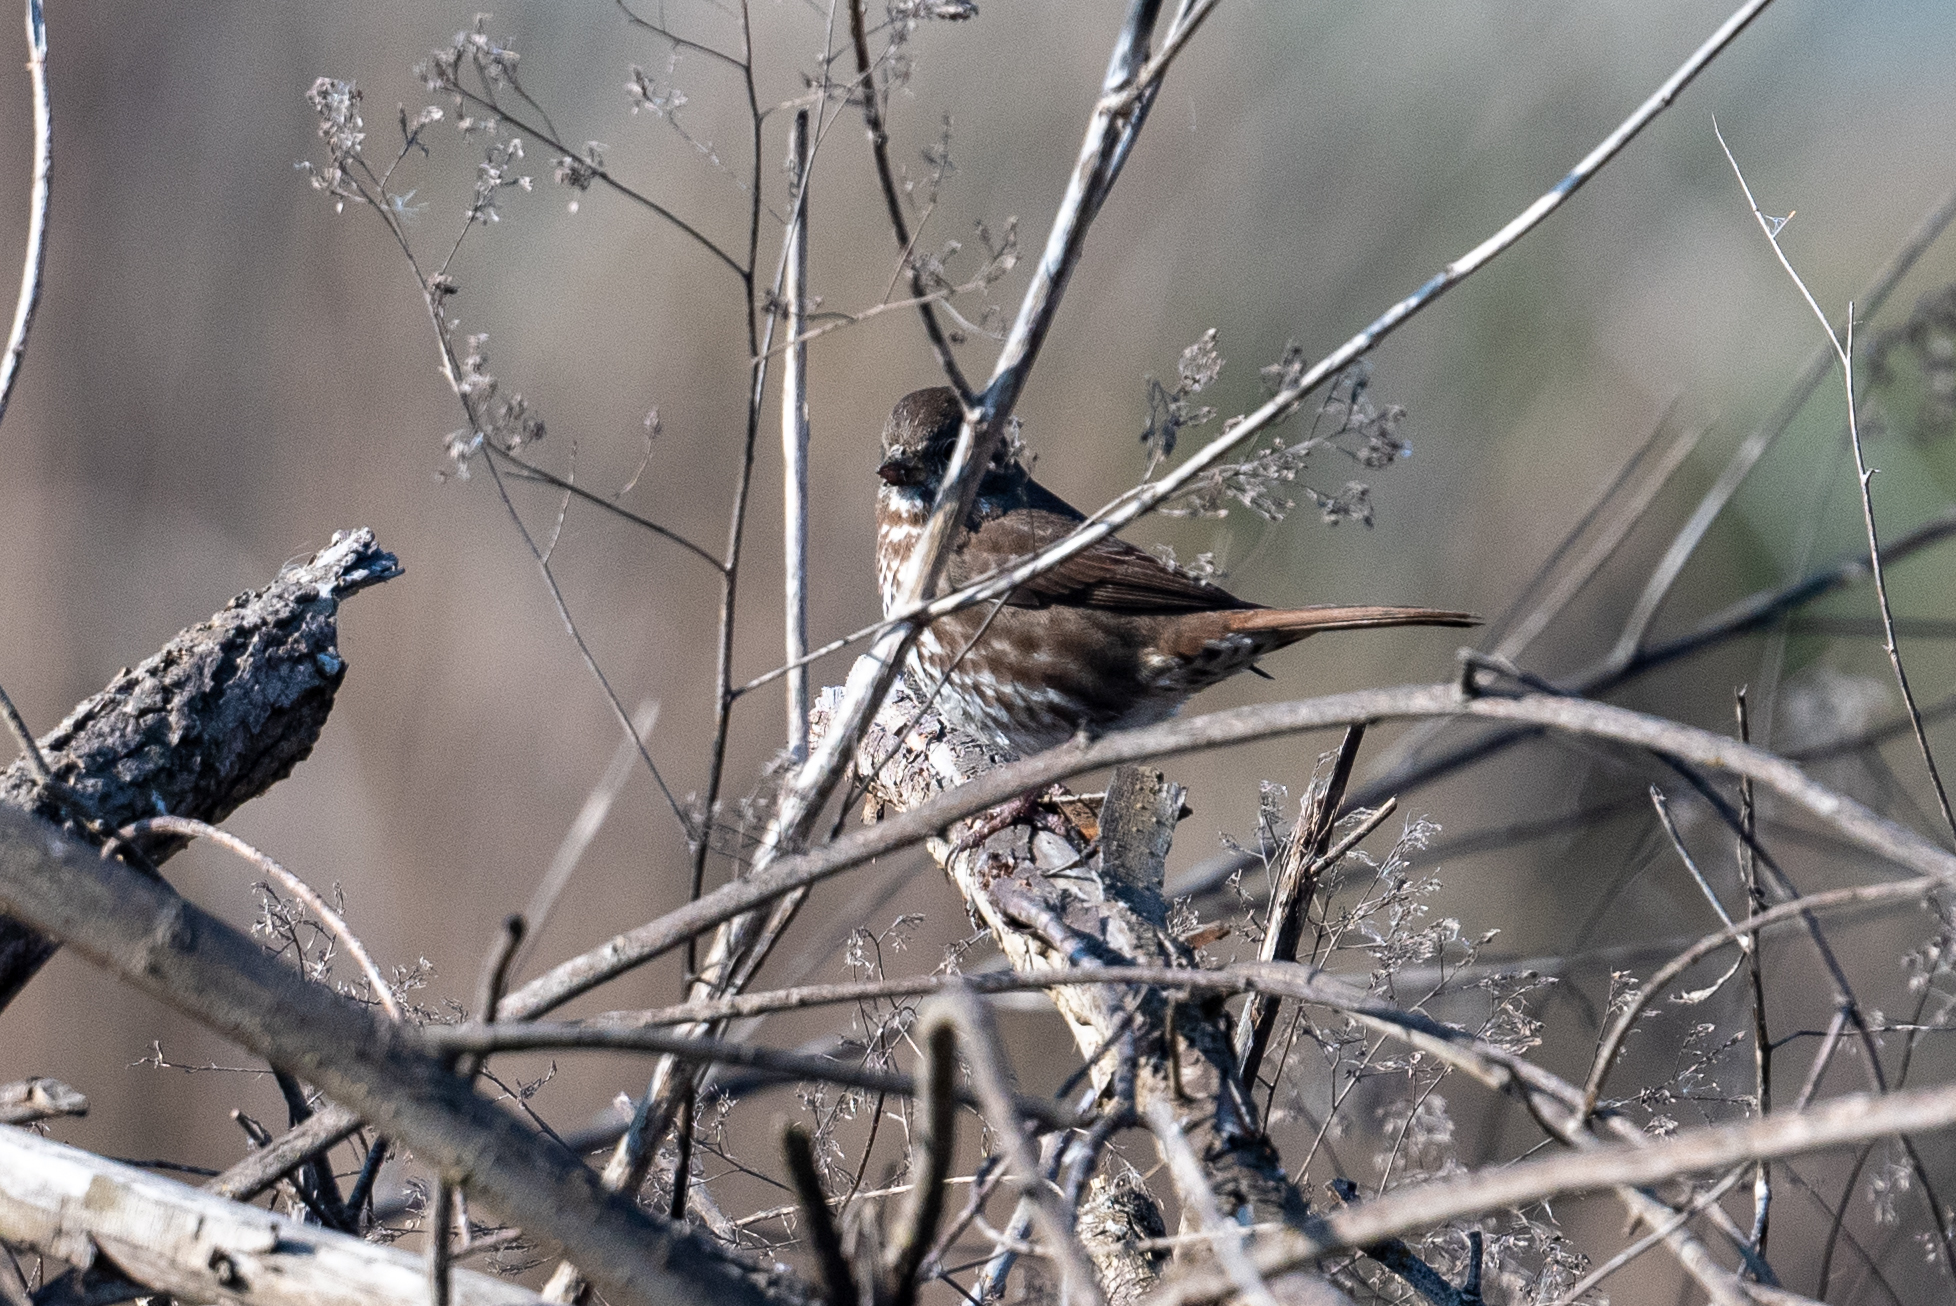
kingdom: Animalia
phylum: Chordata
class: Aves
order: Passeriformes
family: Passerellidae
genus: Passerella
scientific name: Passerella iliaca
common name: Fox sparrow
